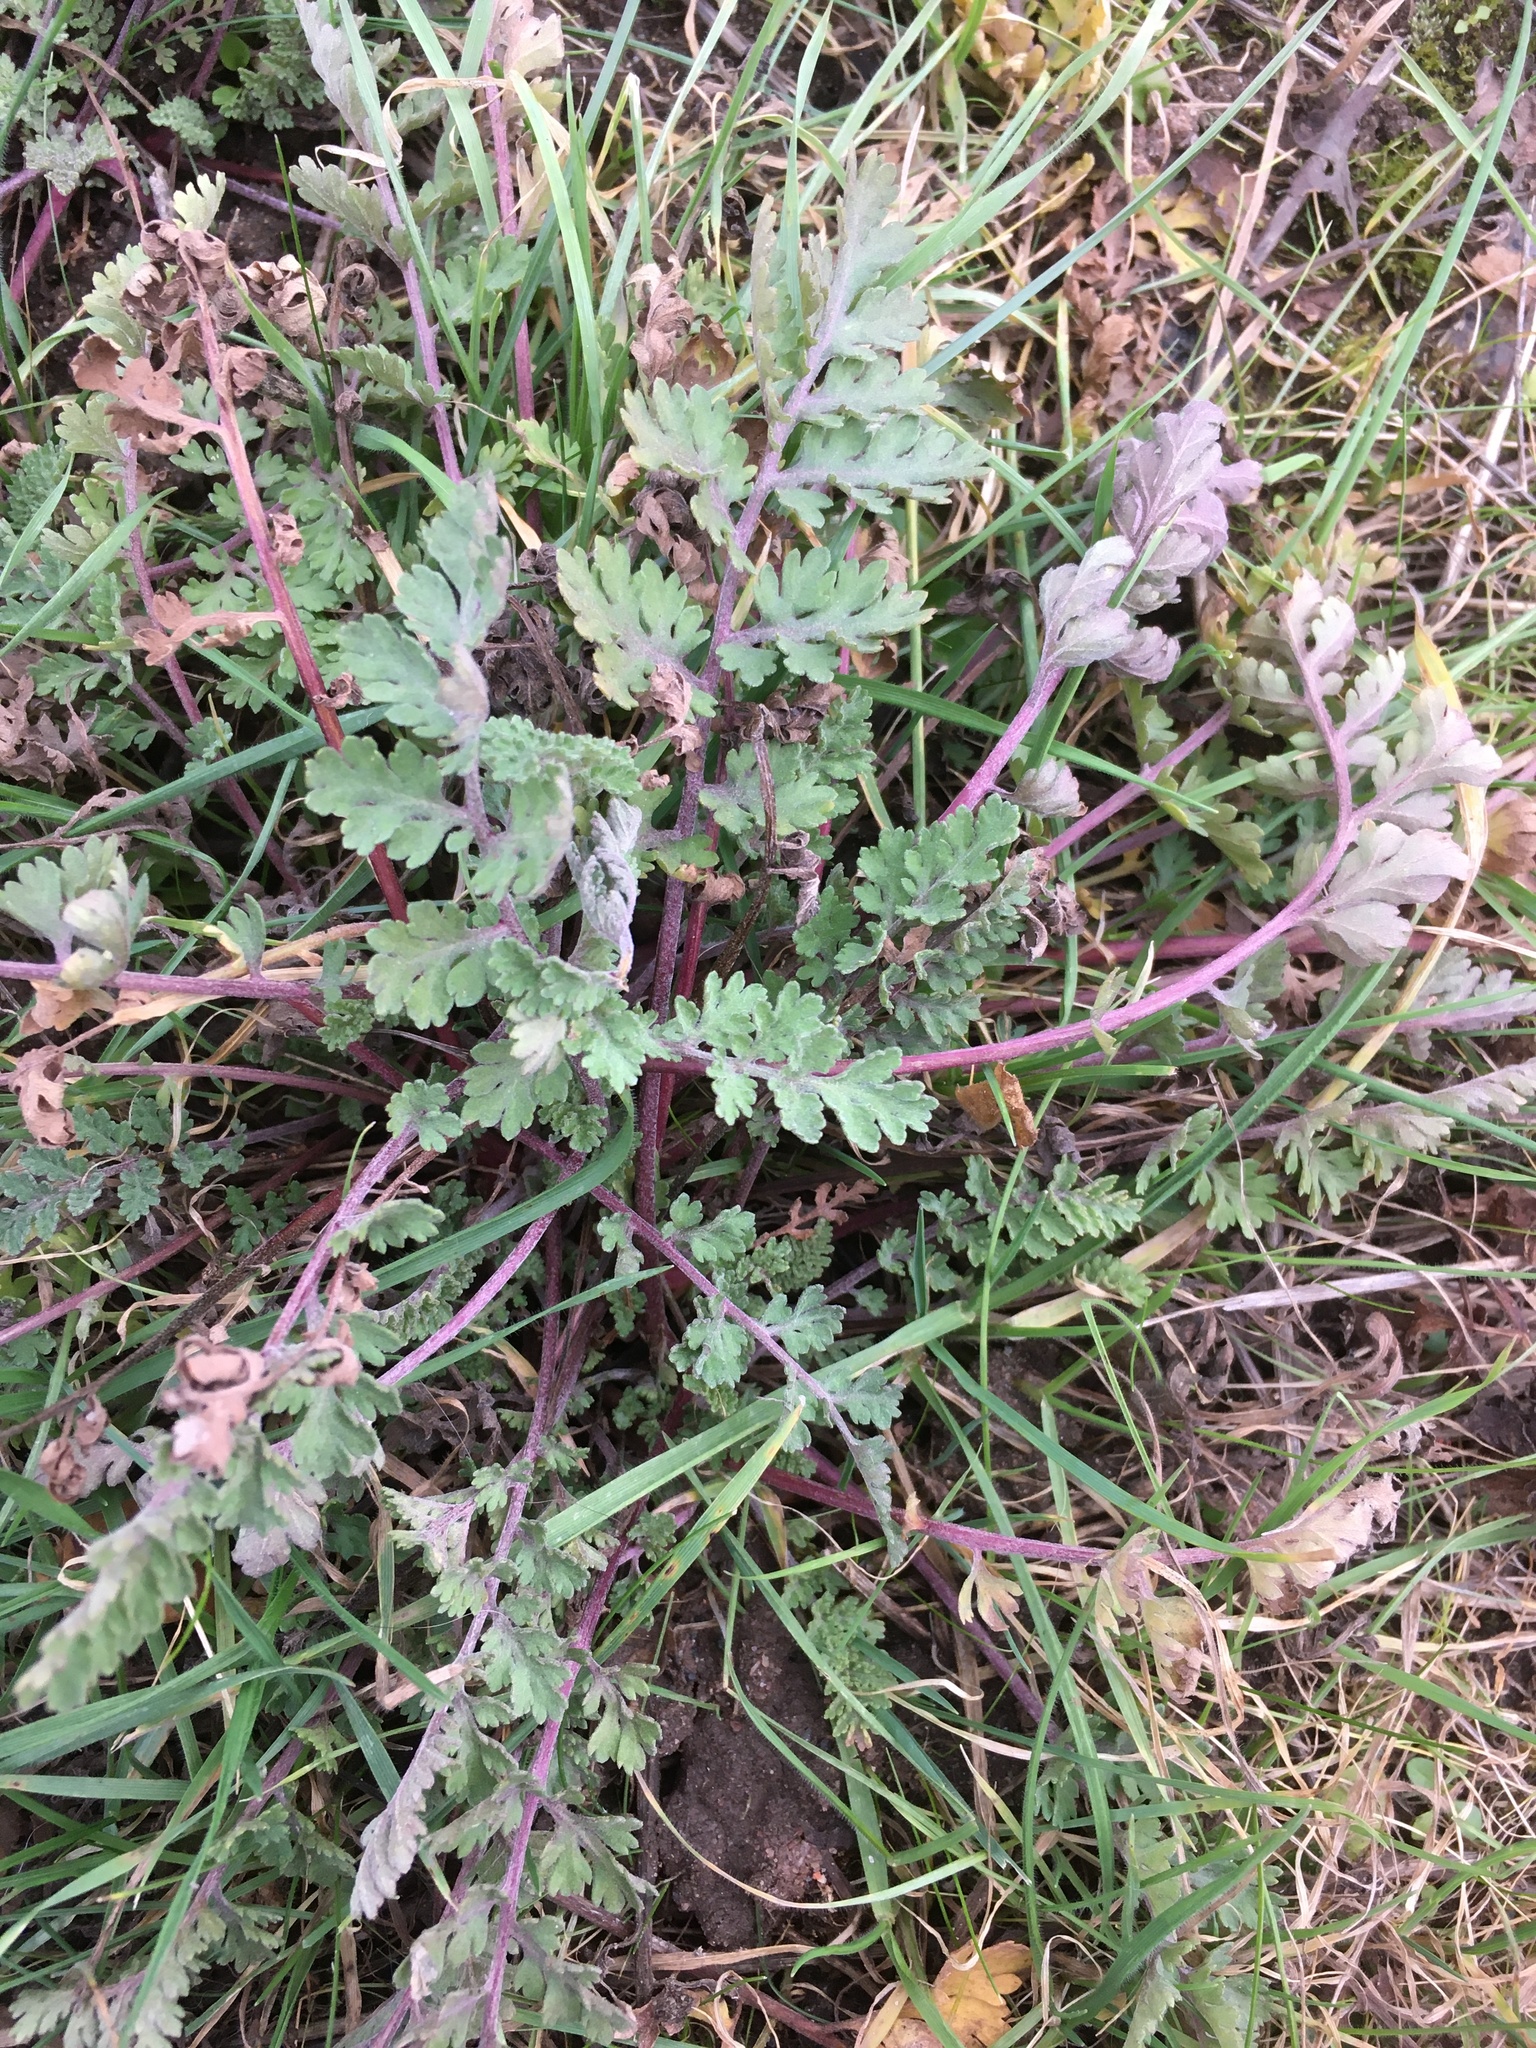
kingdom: Plantae
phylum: Tracheophyta
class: Magnoliopsida
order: Asterales
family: Asteraceae
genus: Jacobaea
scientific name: Jacobaea vulgaris
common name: Stinking willie
